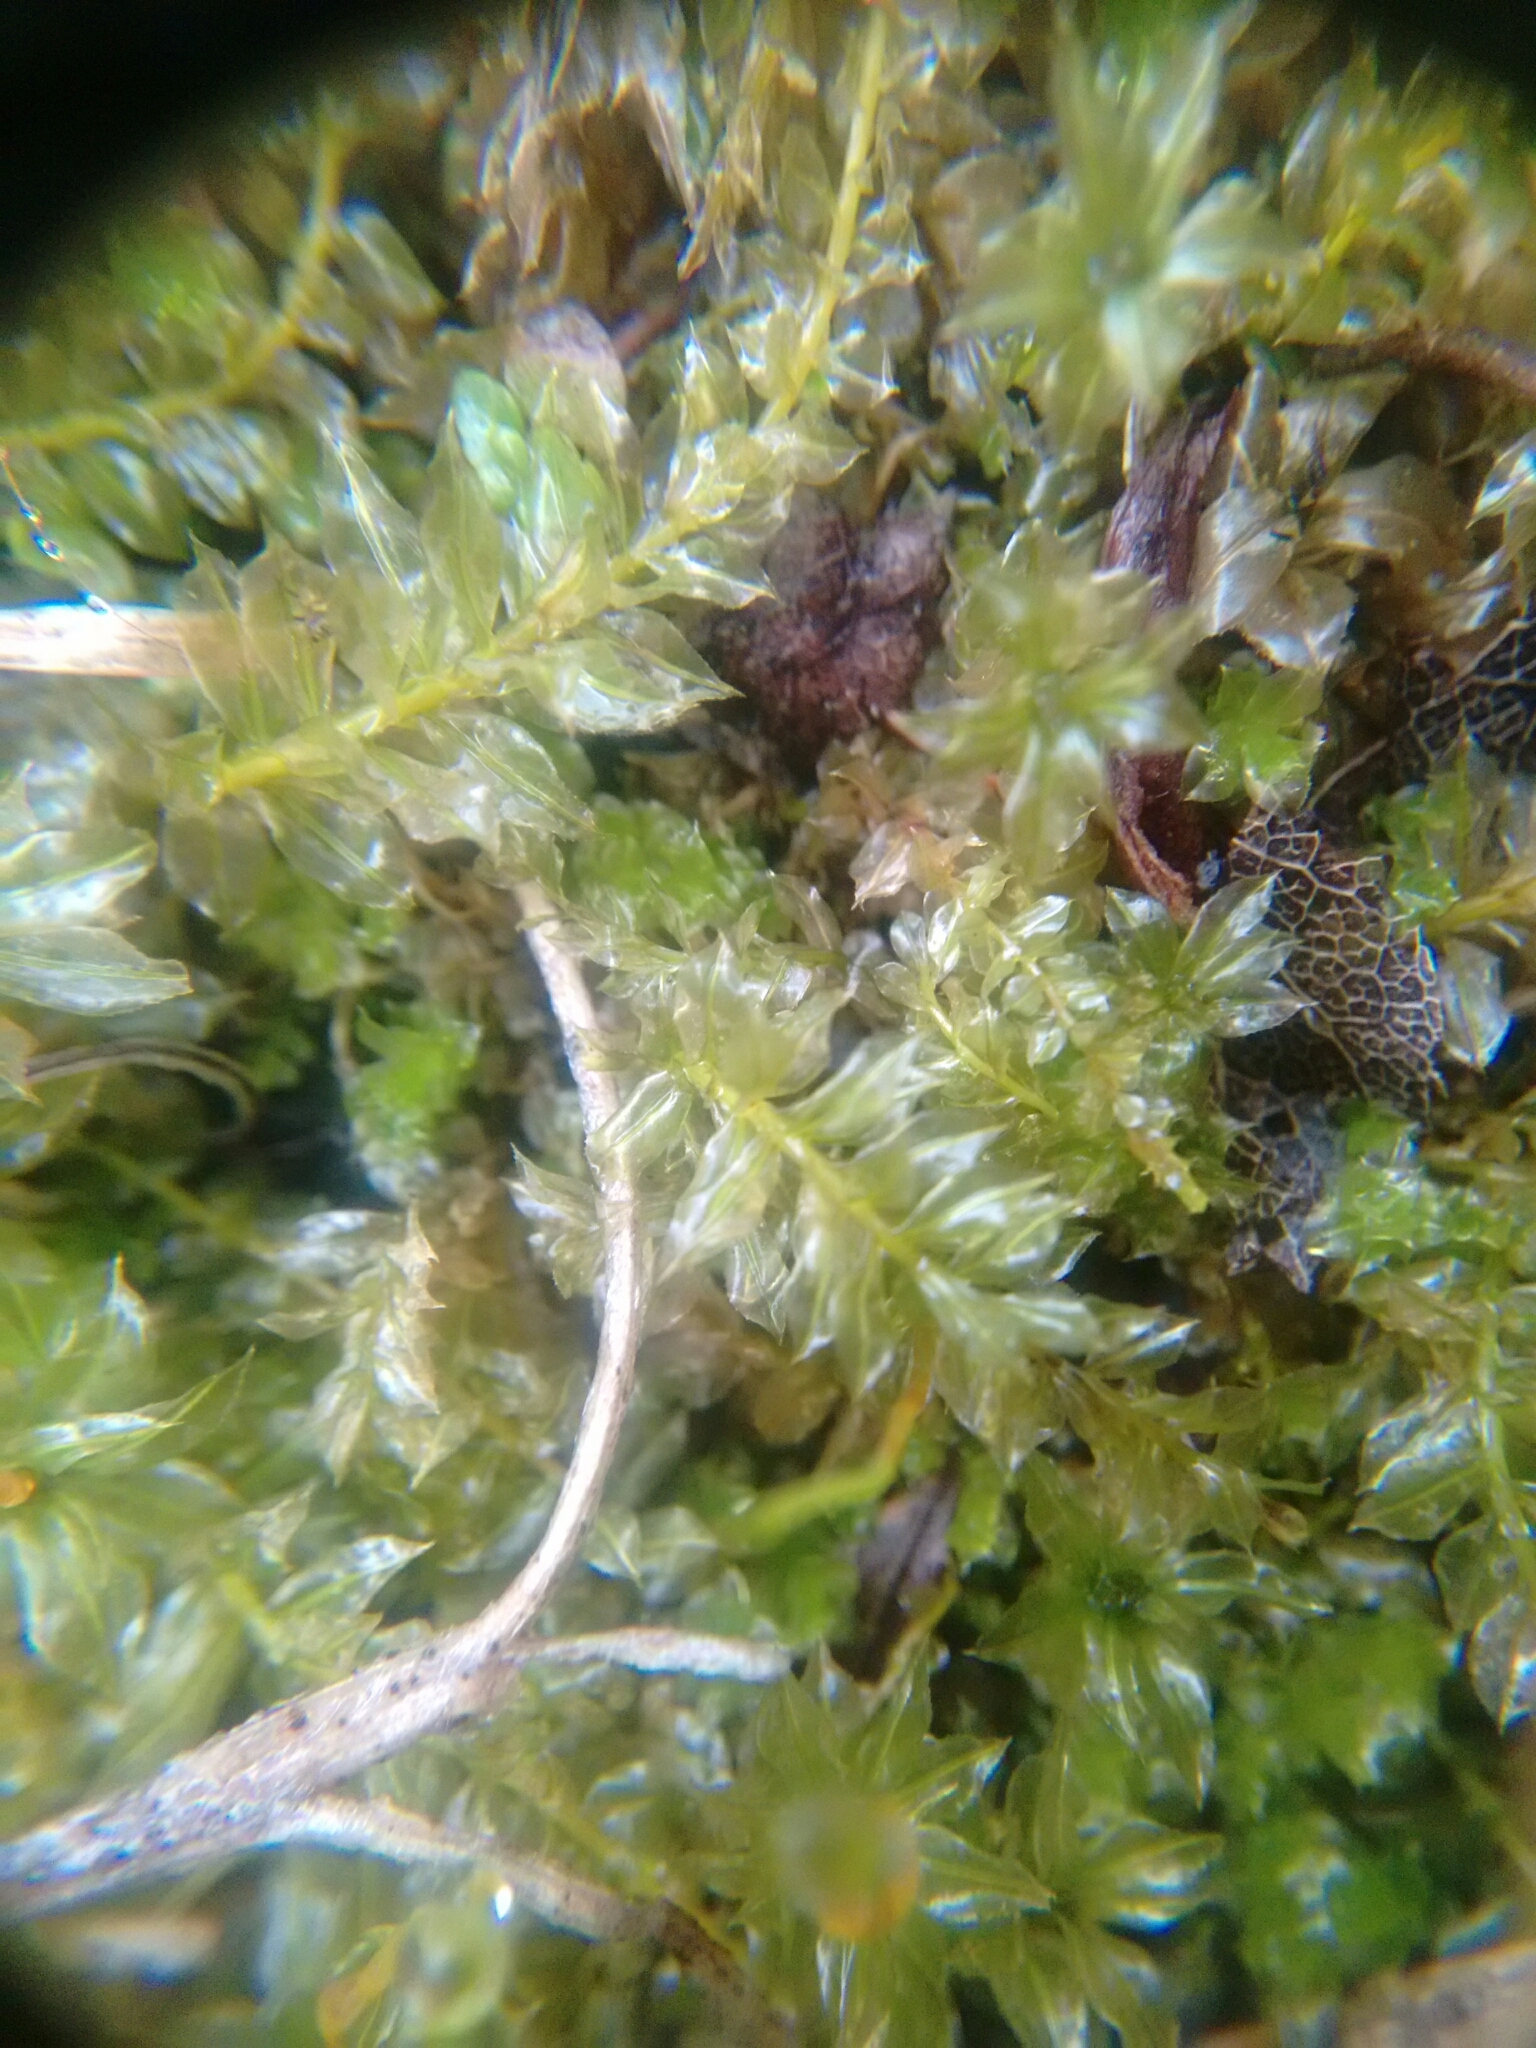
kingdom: Plantae
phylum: Bryophyta
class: Bryopsida
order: Bryales
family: Mniaceae
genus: Plagiomnium
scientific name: Plagiomnium cuspidatum
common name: Woodsy leafy moss
